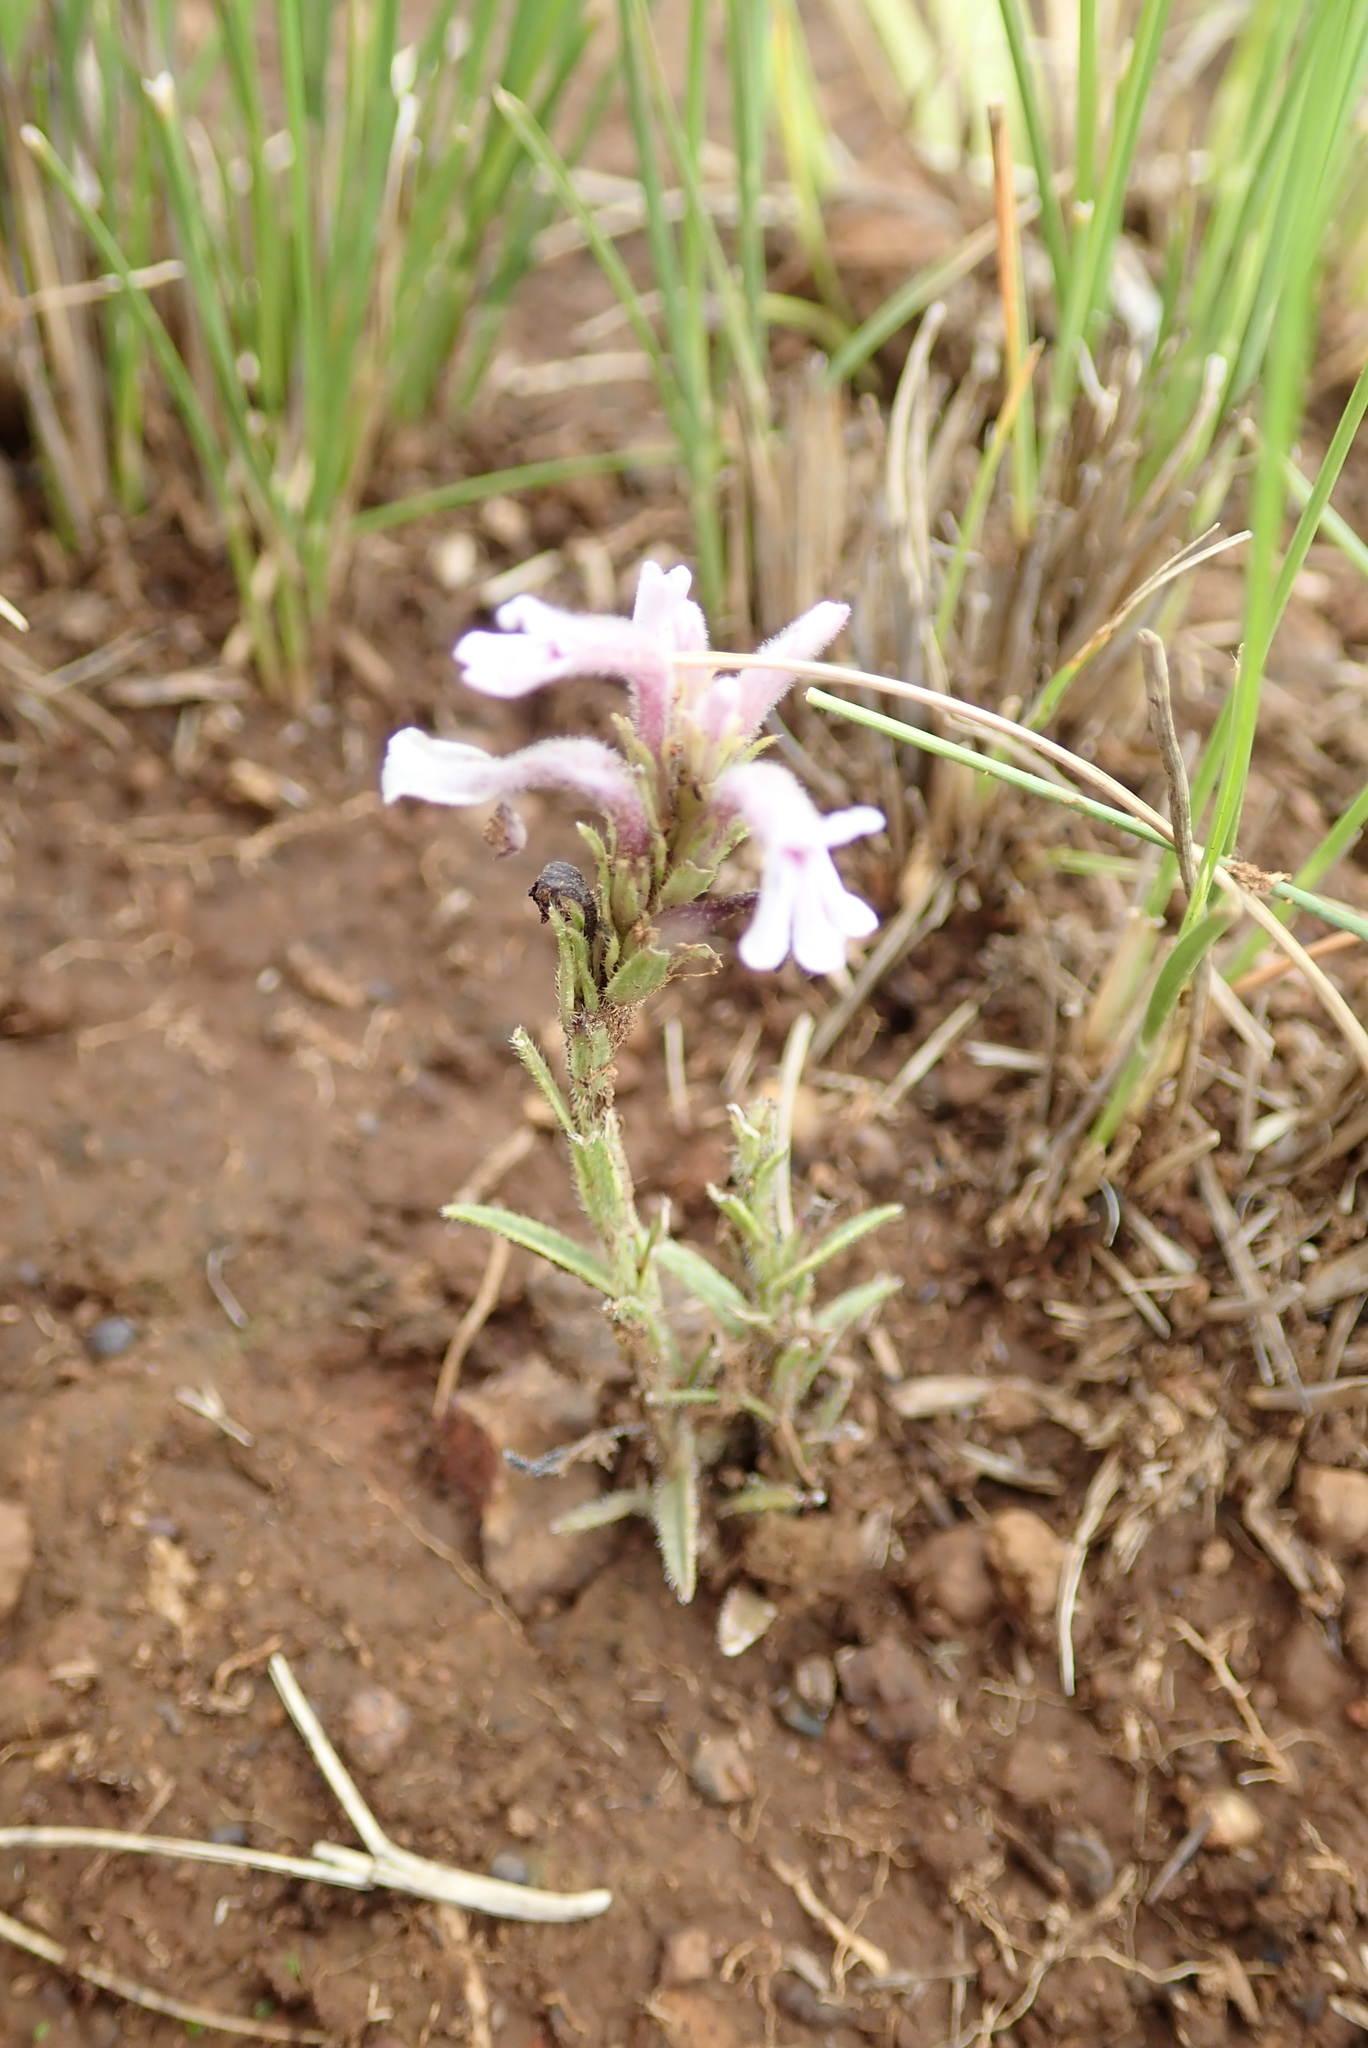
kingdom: Plantae
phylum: Tracheophyta
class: Magnoliopsida
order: Lamiales
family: Orobanchaceae
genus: Striga
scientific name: Striga bilabiata
